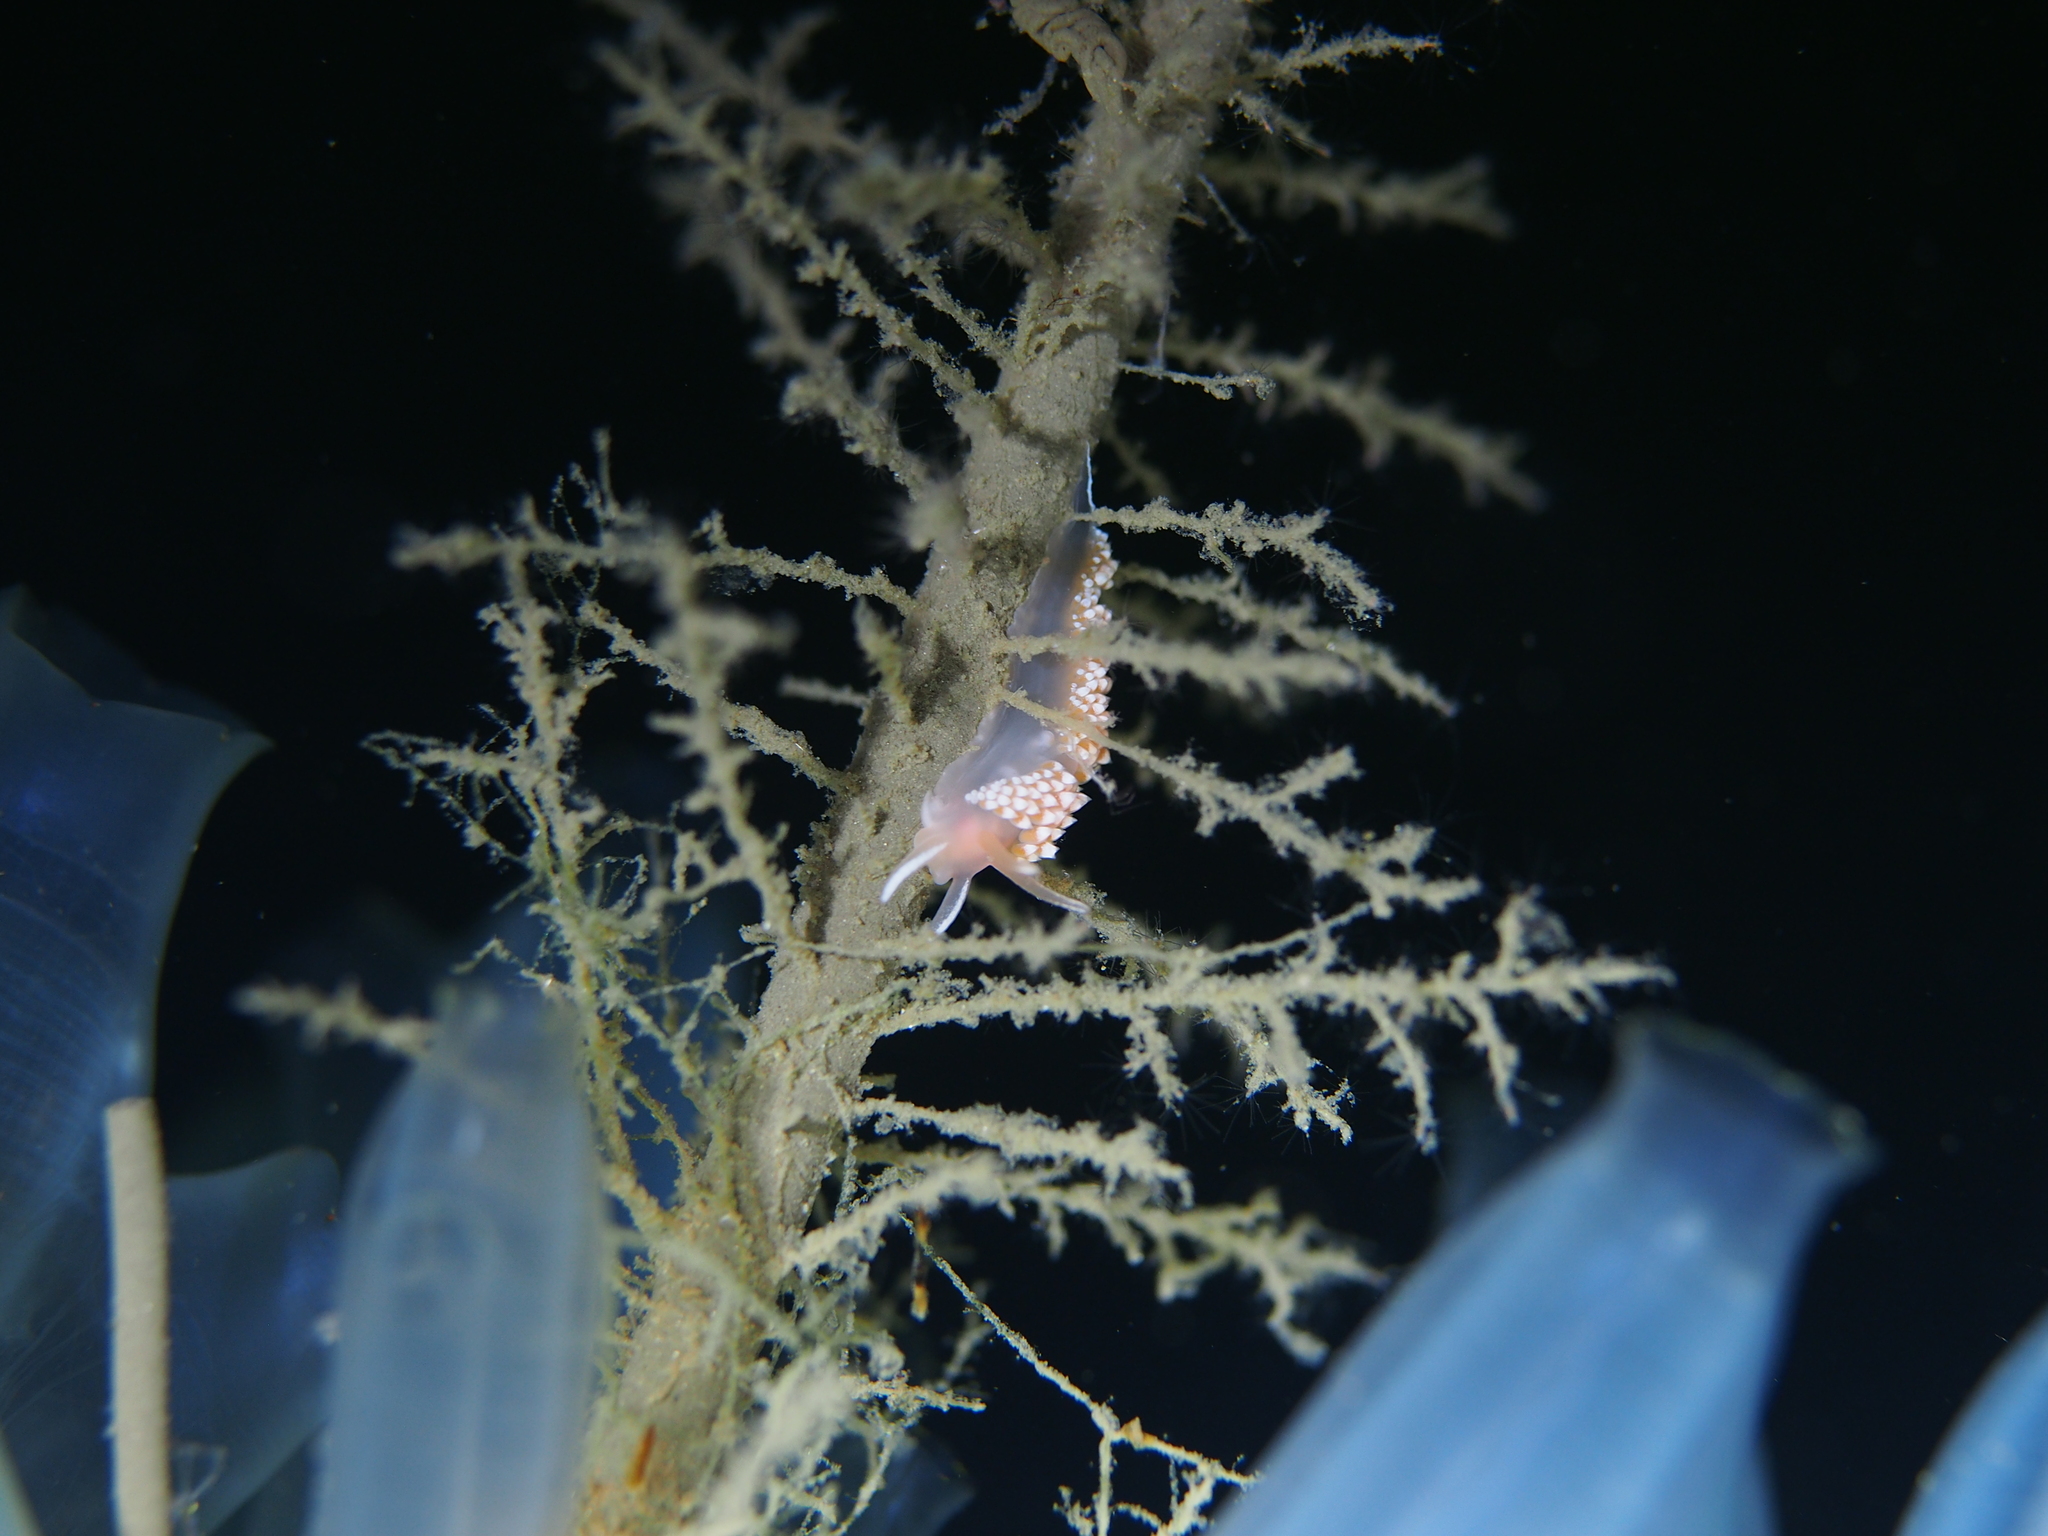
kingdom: Animalia
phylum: Mollusca
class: Gastropoda
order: Nudibranchia
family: Coryphellidae
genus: Coryphella
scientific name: Coryphella verrucosa
